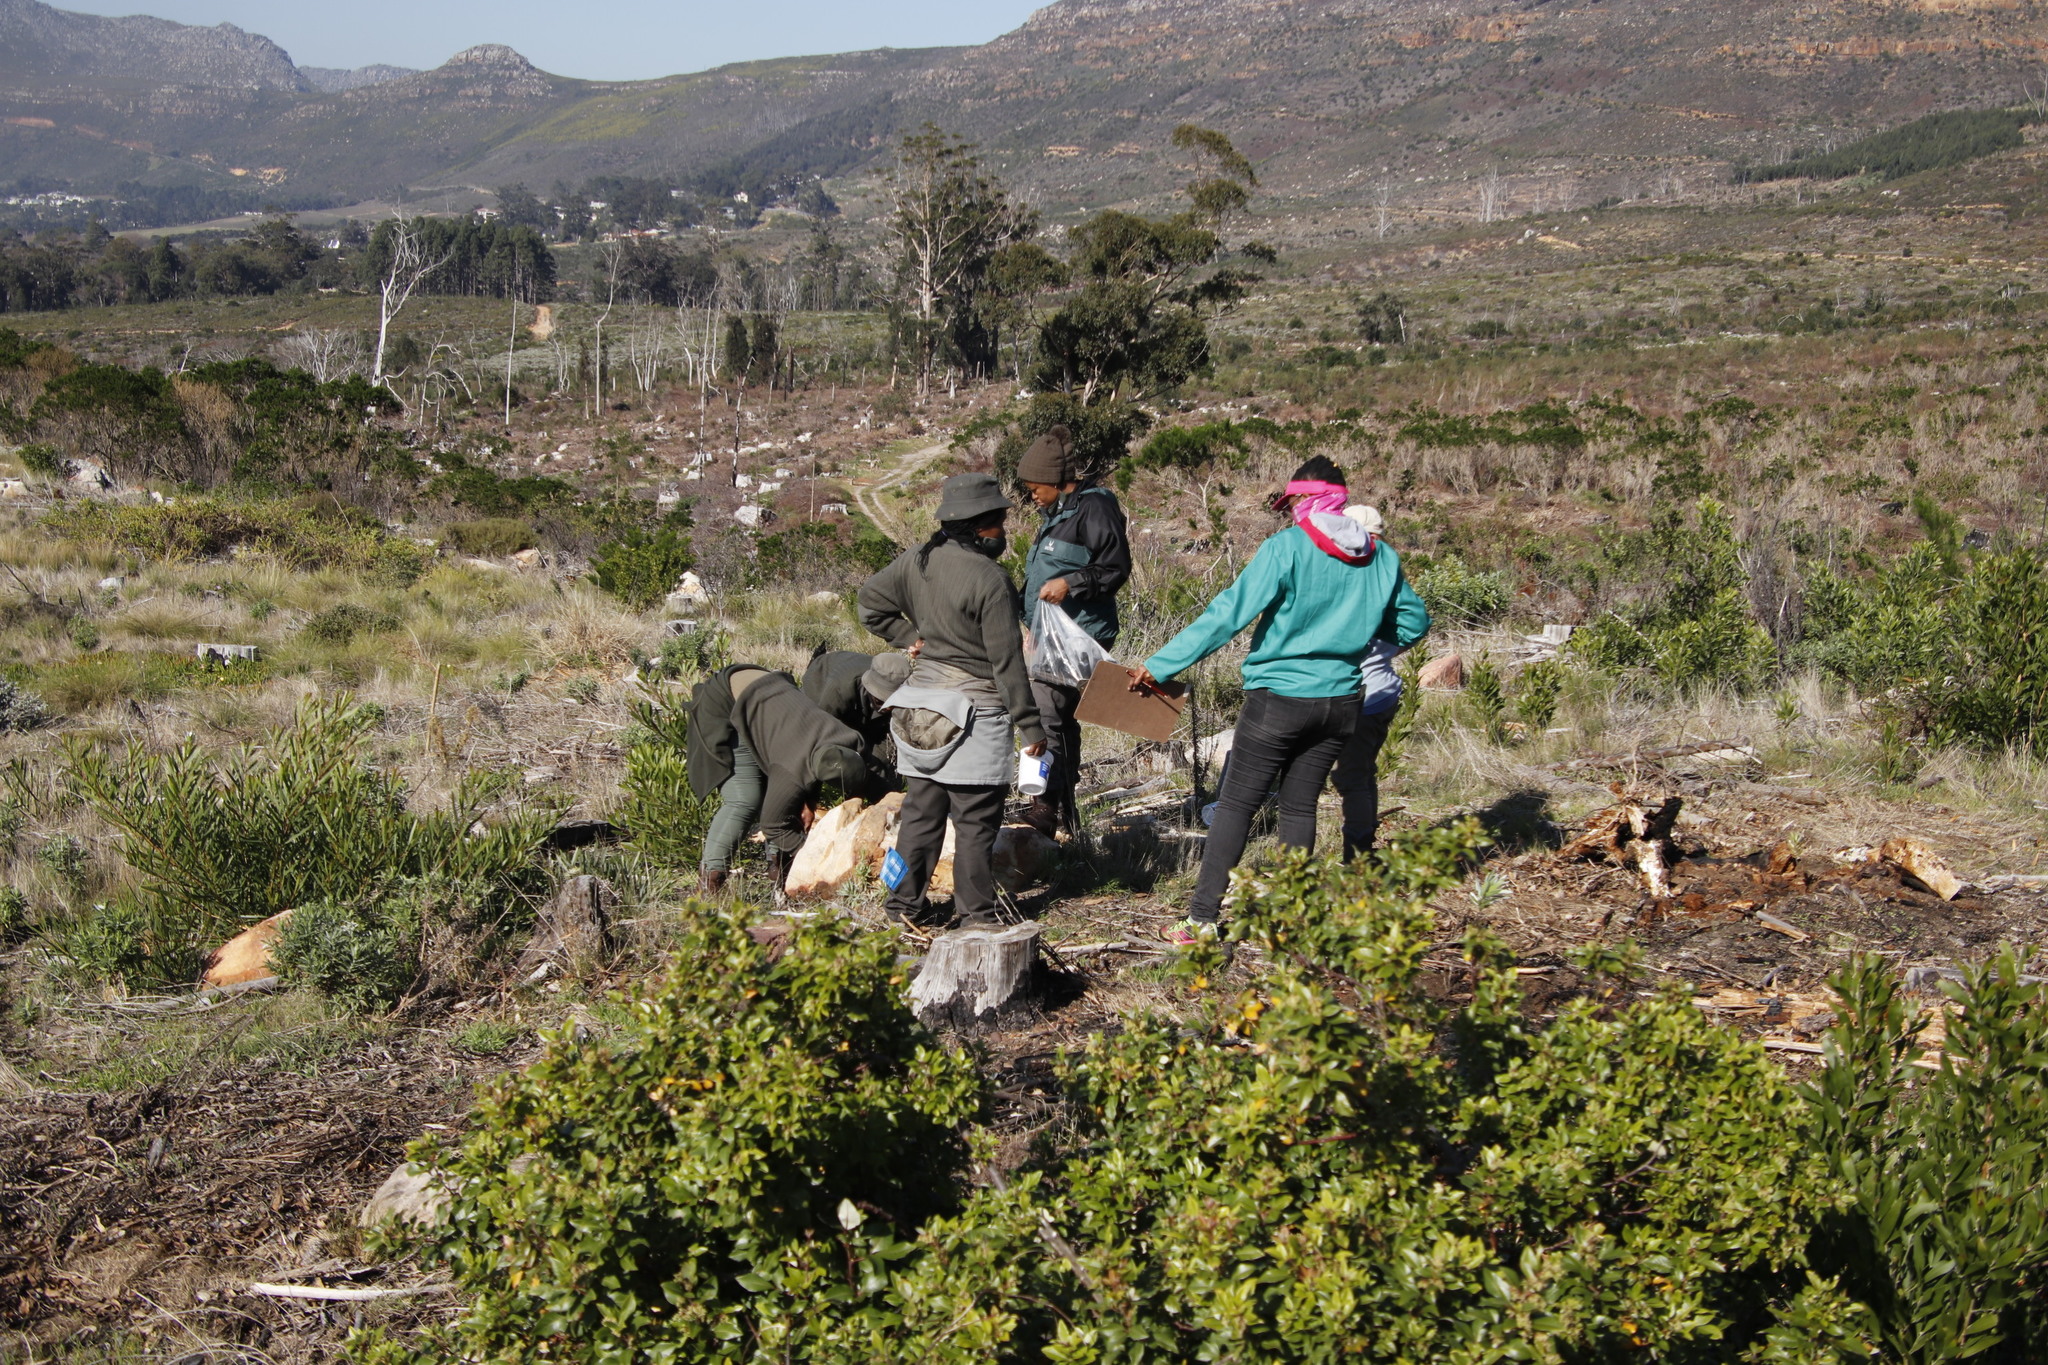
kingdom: Plantae
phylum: Tracheophyta
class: Magnoliopsida
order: Fabales
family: Fabaceae
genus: Acacia
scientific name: Acacia longifolia
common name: Sydney golden wattle
